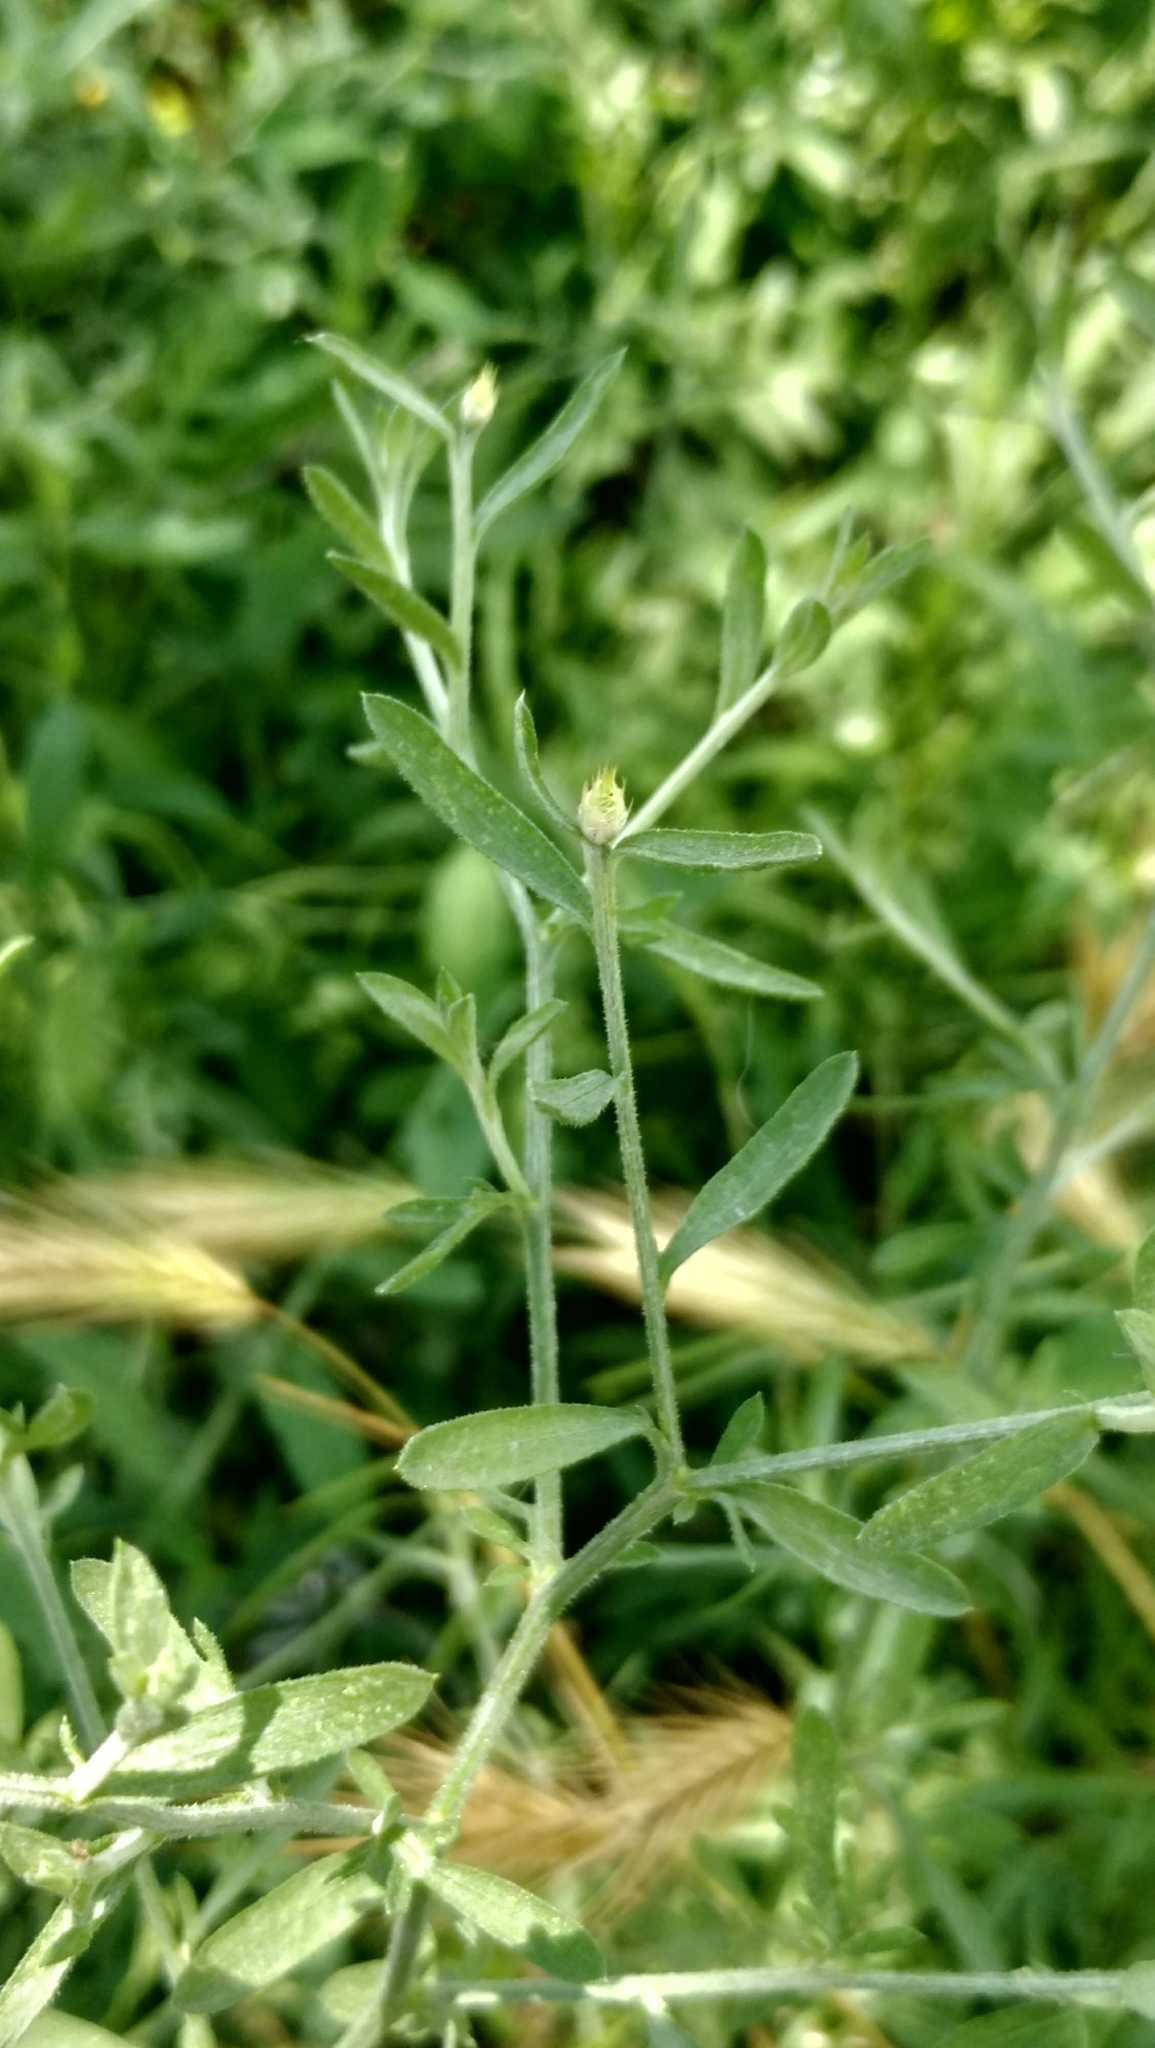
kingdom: Plantae
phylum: Tracheophyta
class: Magnoliopsida
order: Asterales
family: Asteraceae
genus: Centaurea
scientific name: Centaurea diffusa
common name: Diffuse knapweed
